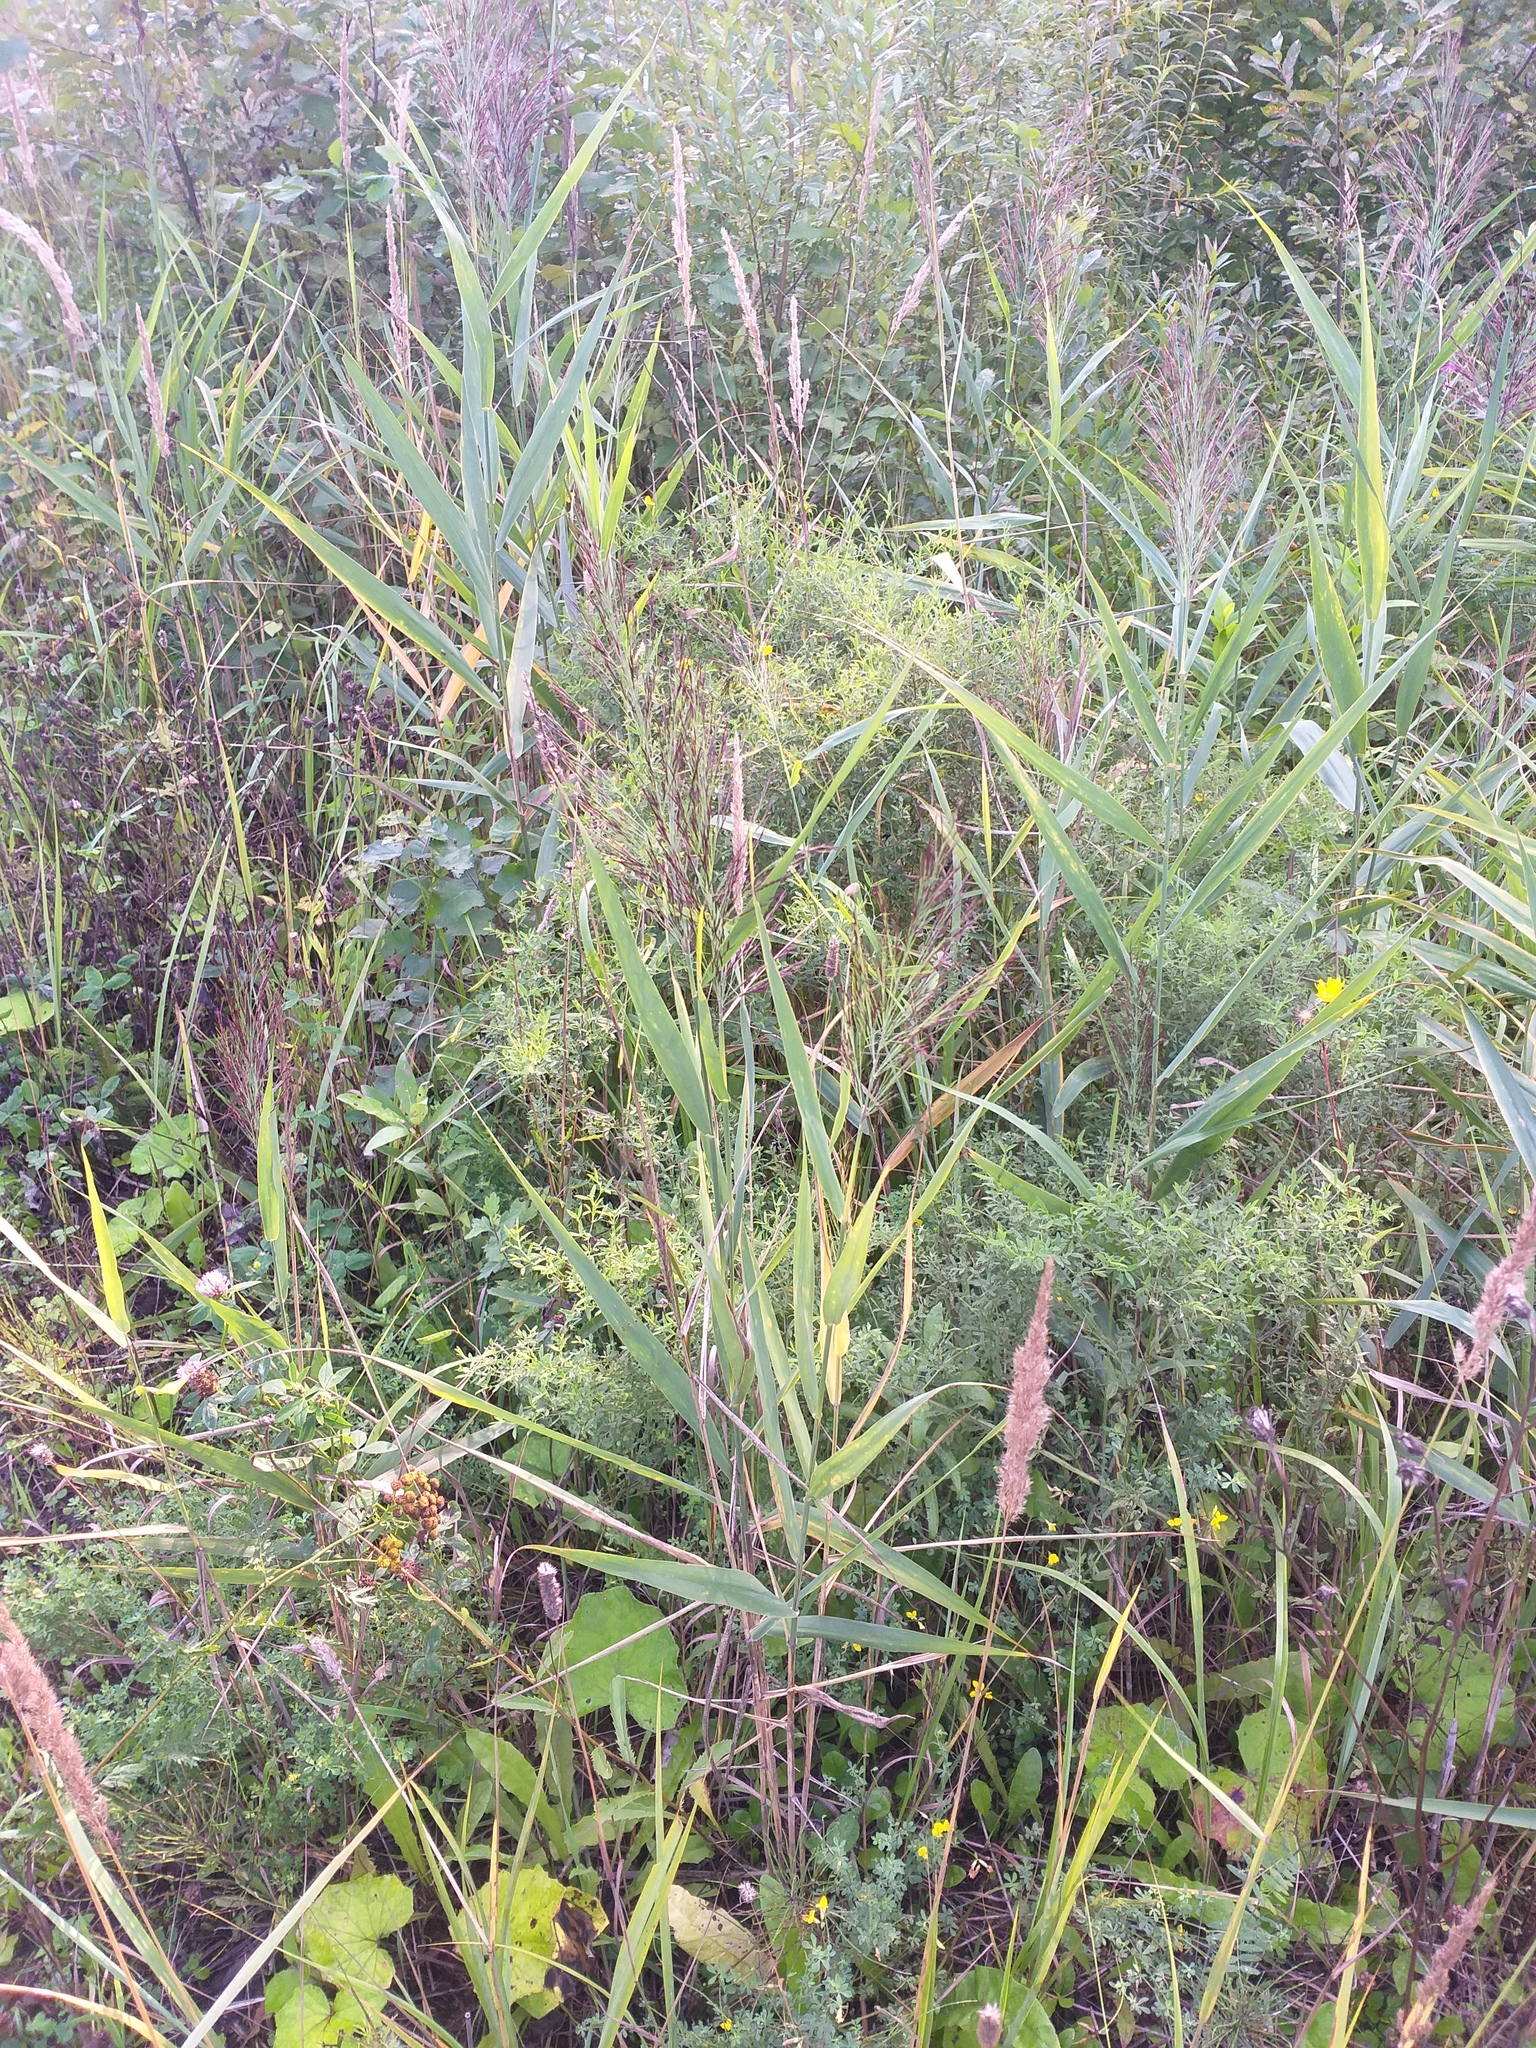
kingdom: Plantae
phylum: Tracheophyta
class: Liliopsida
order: Poales
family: Poaceae
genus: Phragmites
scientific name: Phragmites australis
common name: Common reed
